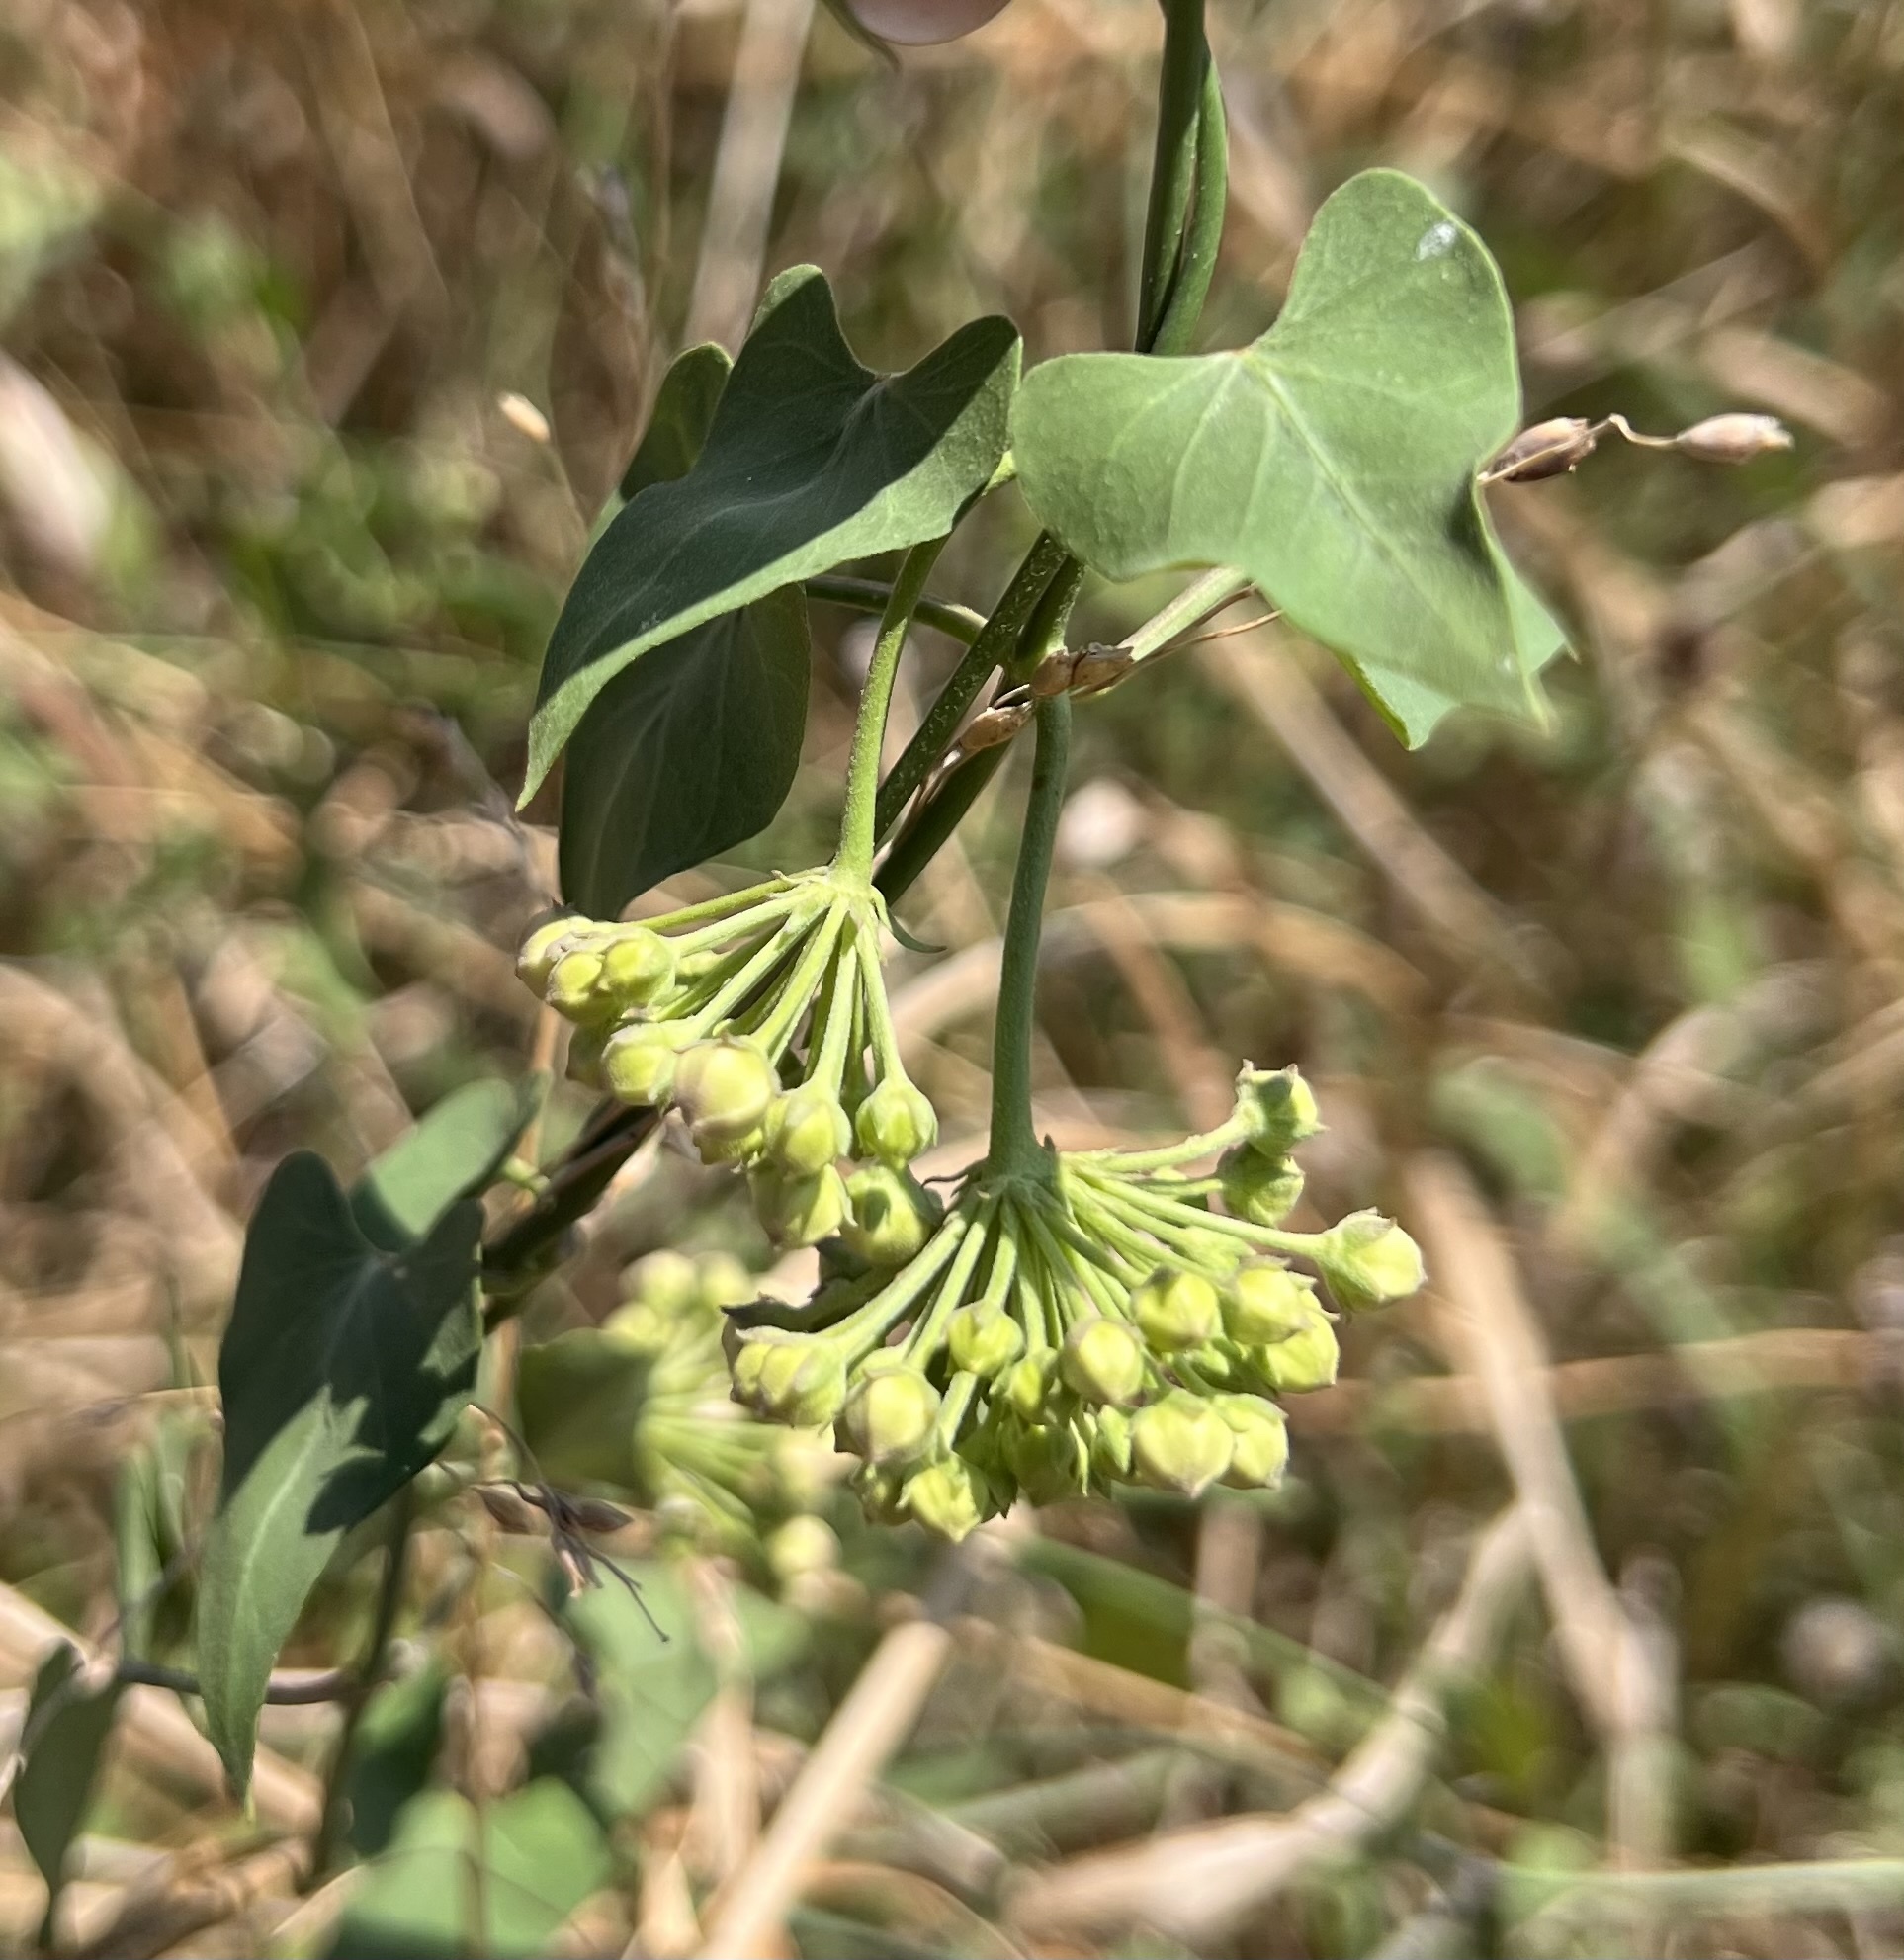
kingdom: Plantae
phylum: Tracheophyta
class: Magnoliopsida
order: Gentianales
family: Apocynaceae
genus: Funastrum
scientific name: Funastrum cynanchoides
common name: Climbing-milkweed
